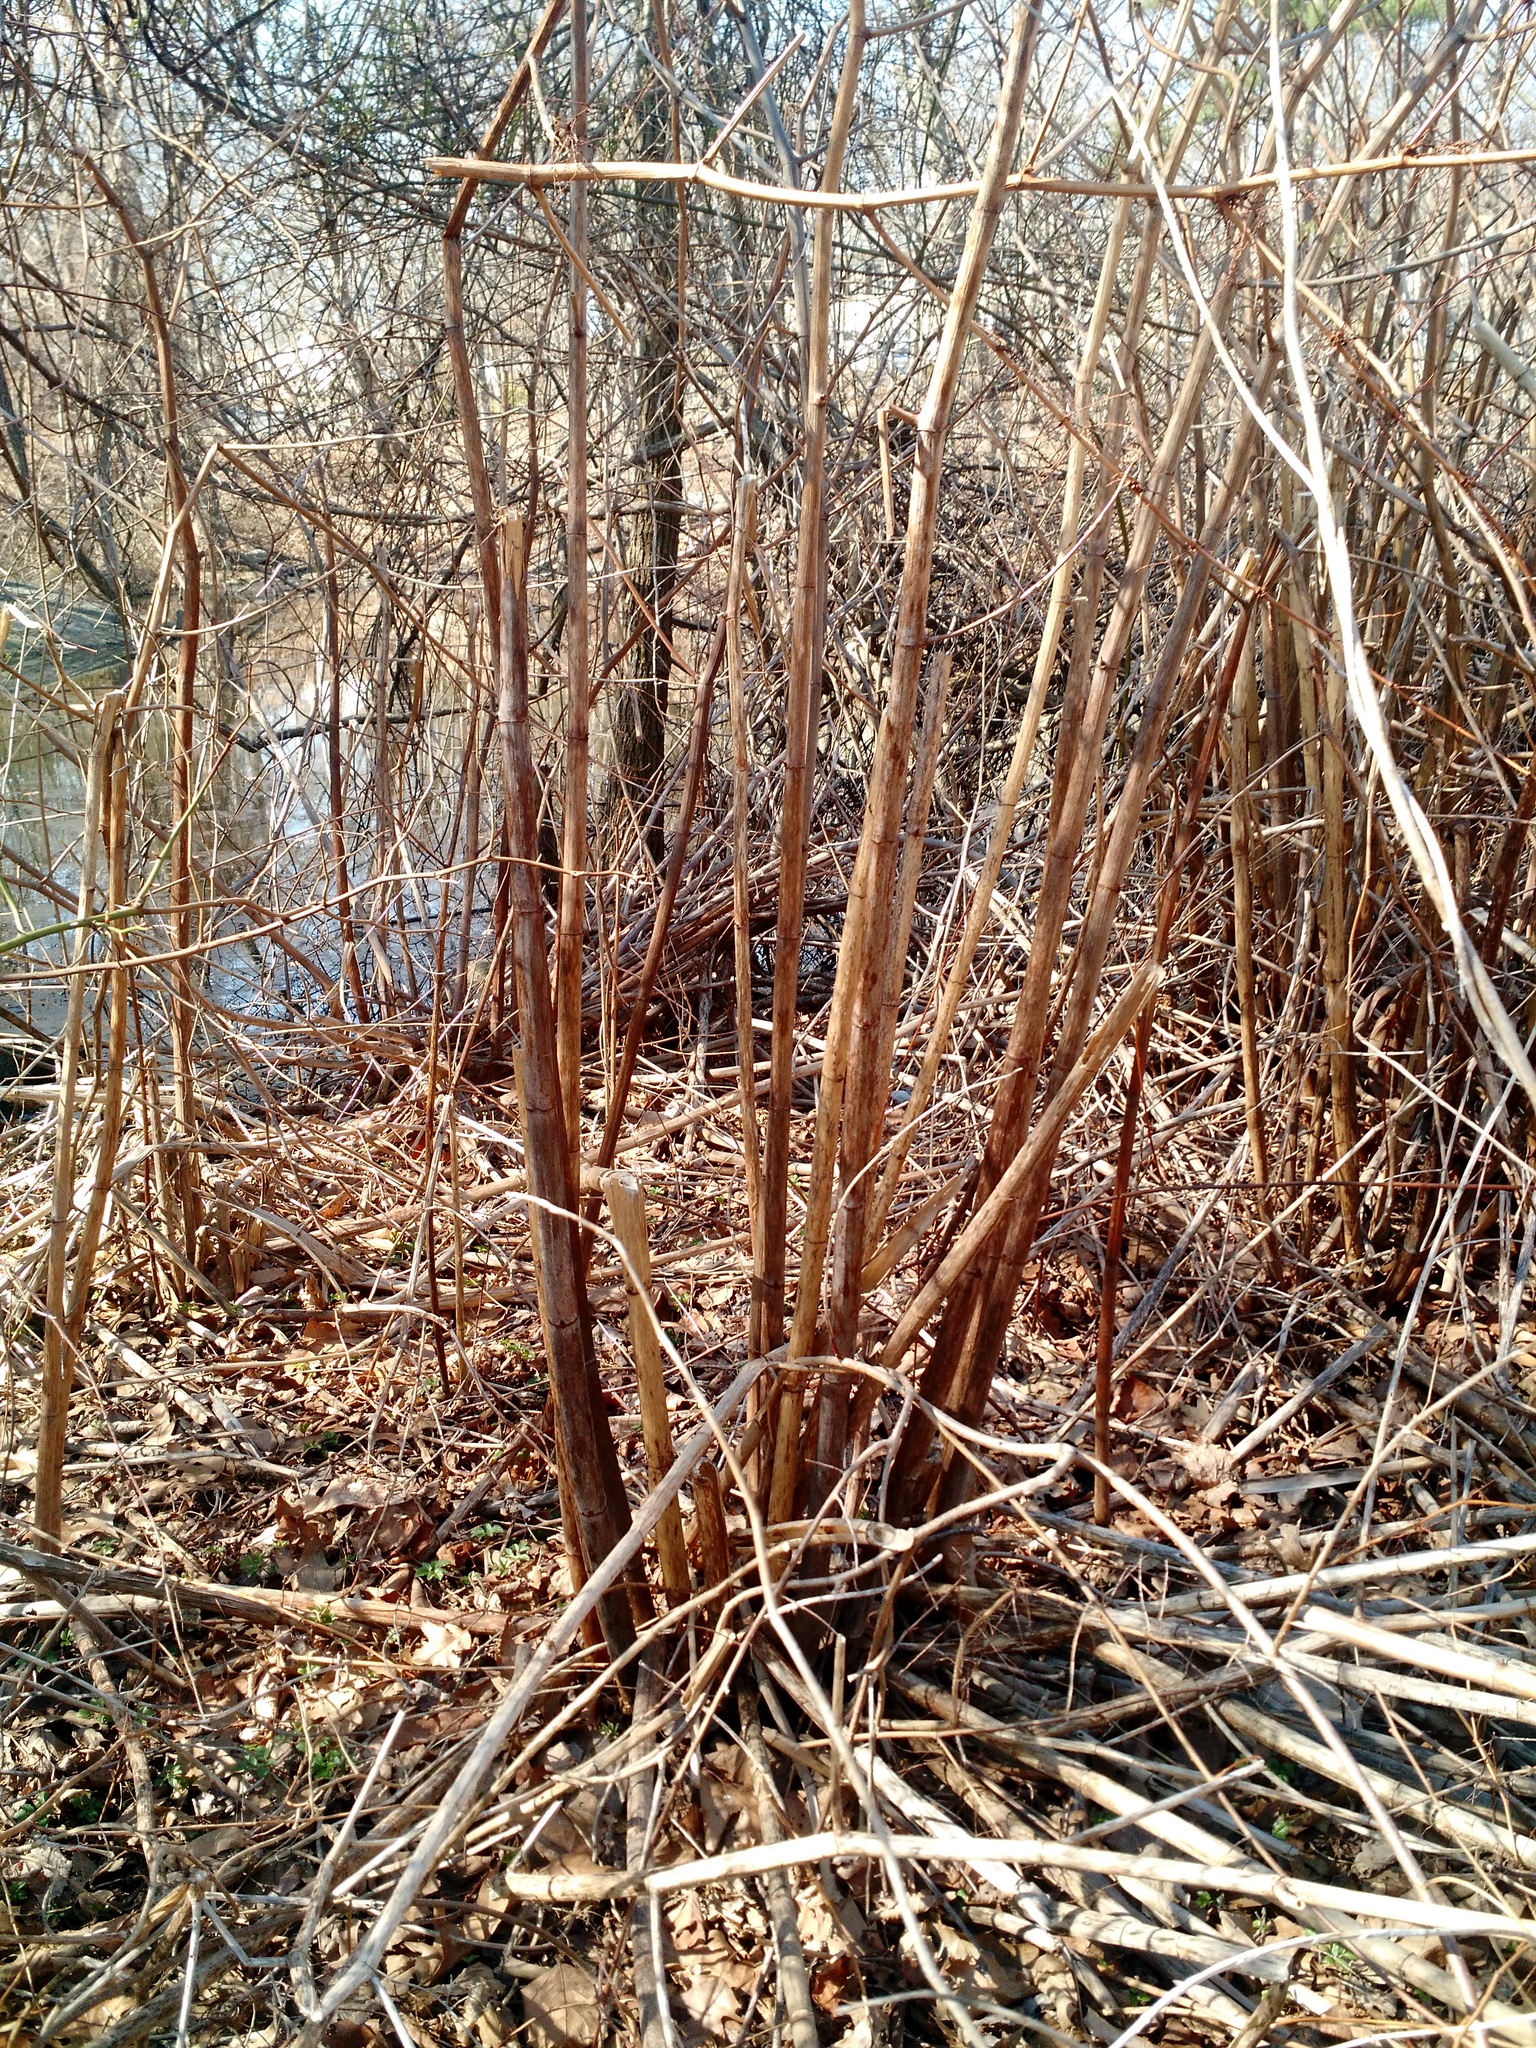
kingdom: Plantae
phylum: Tracheophyta
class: Magnoliopsida
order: Caryophyllales
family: Polygonaceae
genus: Reynoutria
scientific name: Reynoutria japonica
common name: Japanese knotweed
